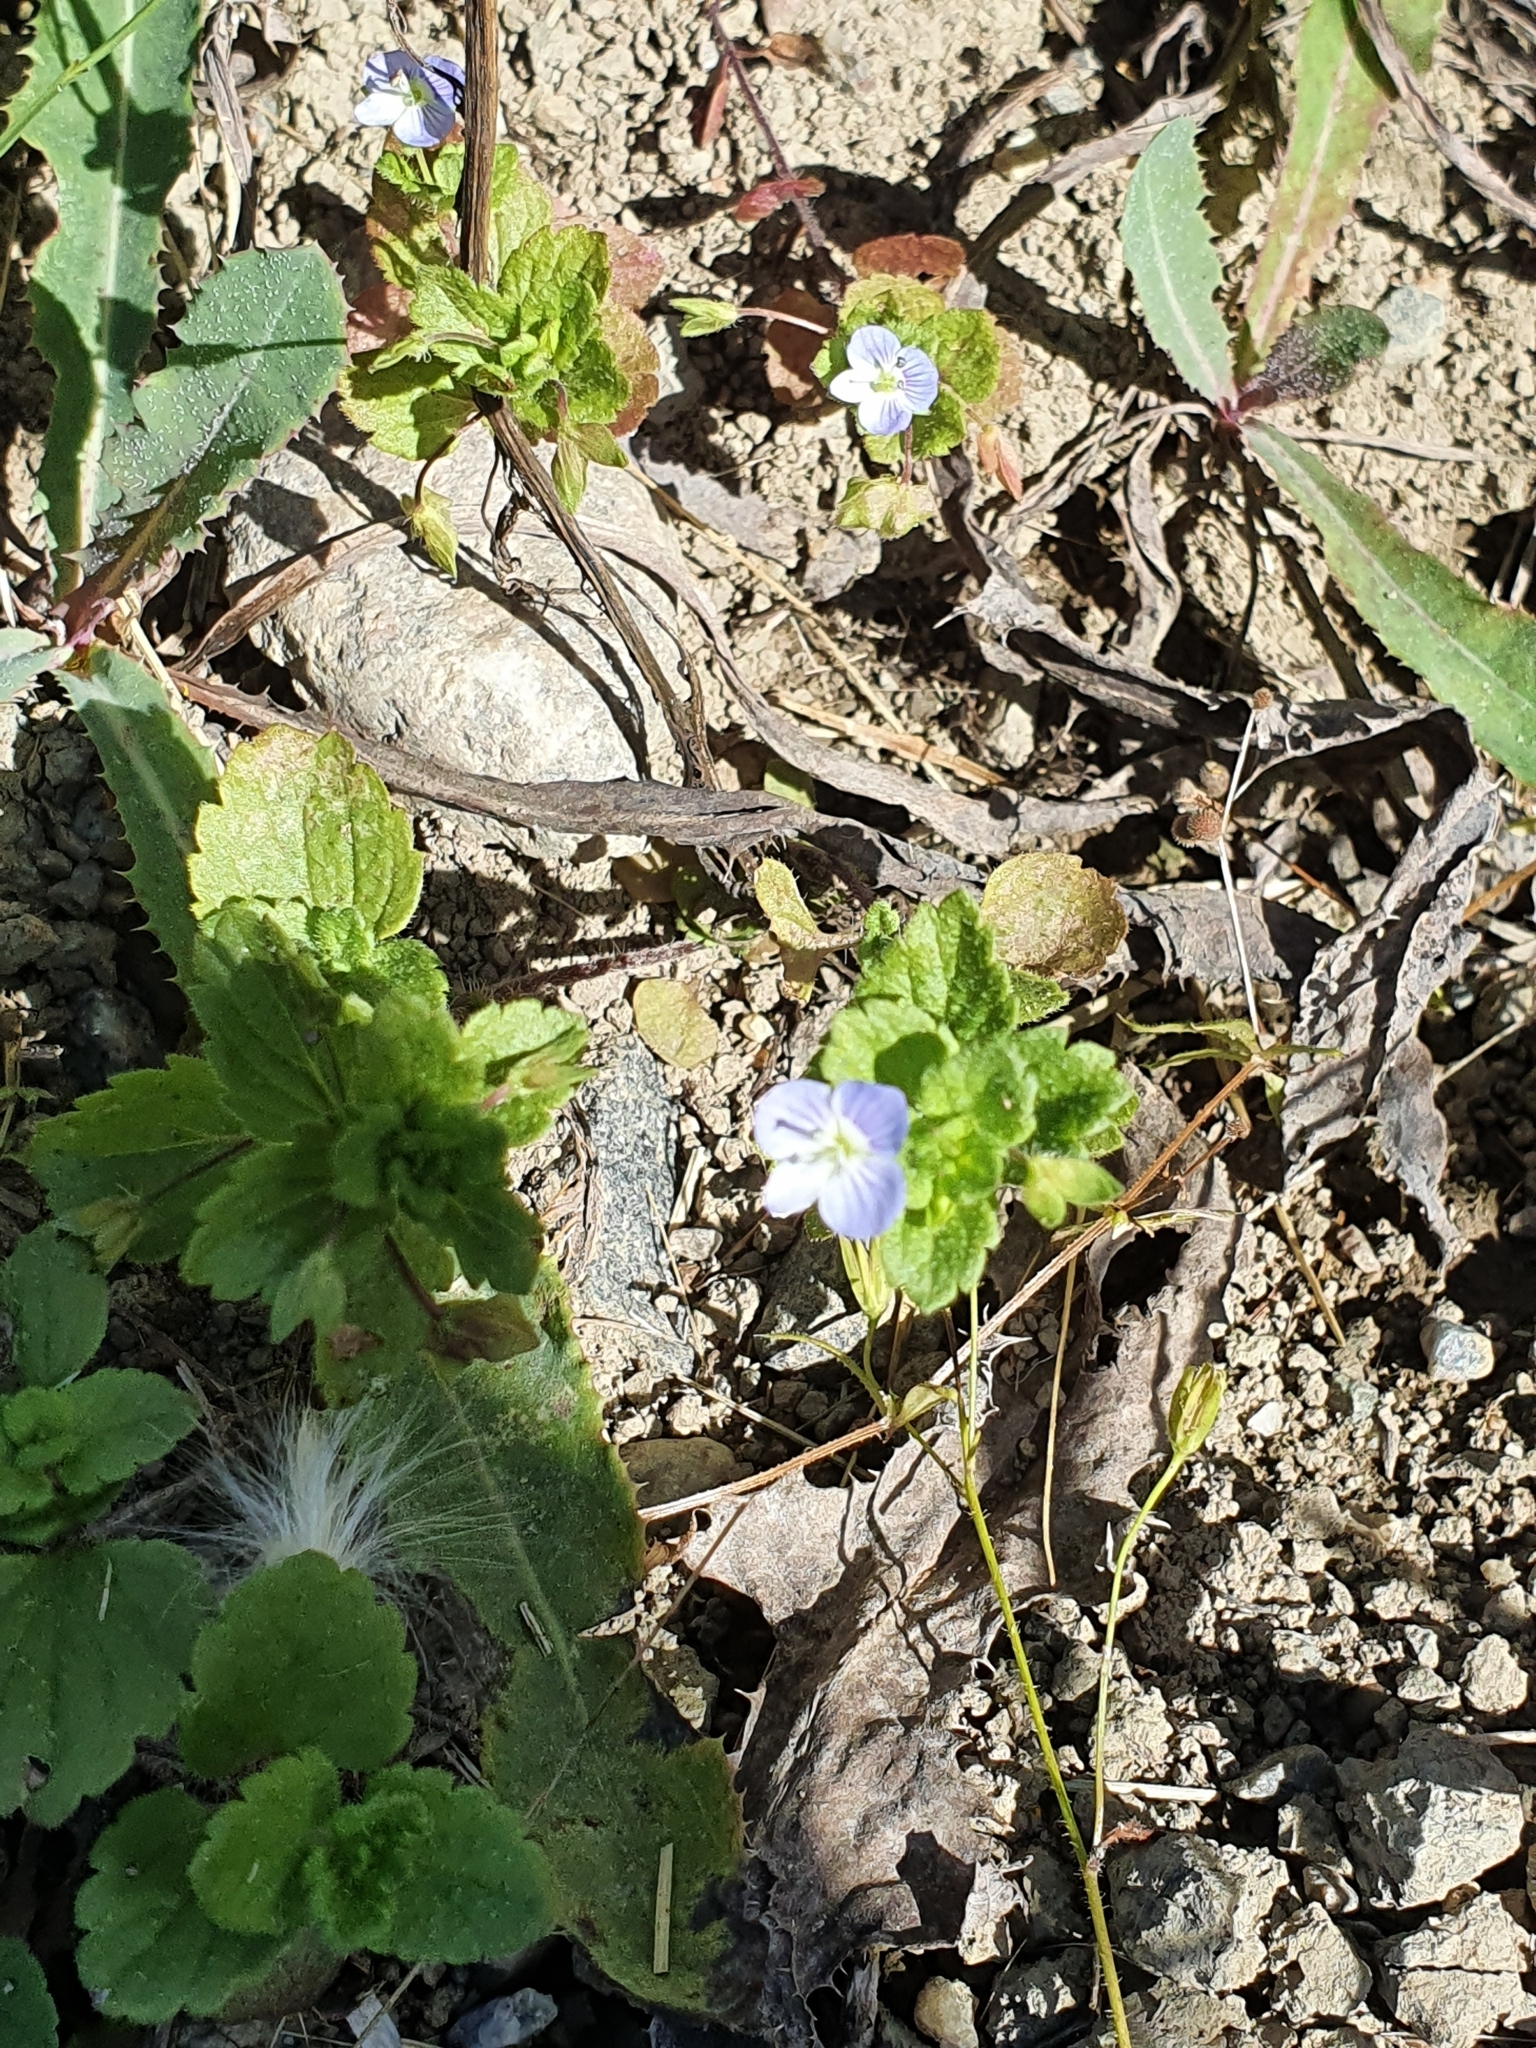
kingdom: Plantae
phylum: Tracheophyta
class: Magnoliopsida
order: Lamiales
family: Plantaginaceae
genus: Veronica
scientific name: Veronica persica
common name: Common field-speedwell
